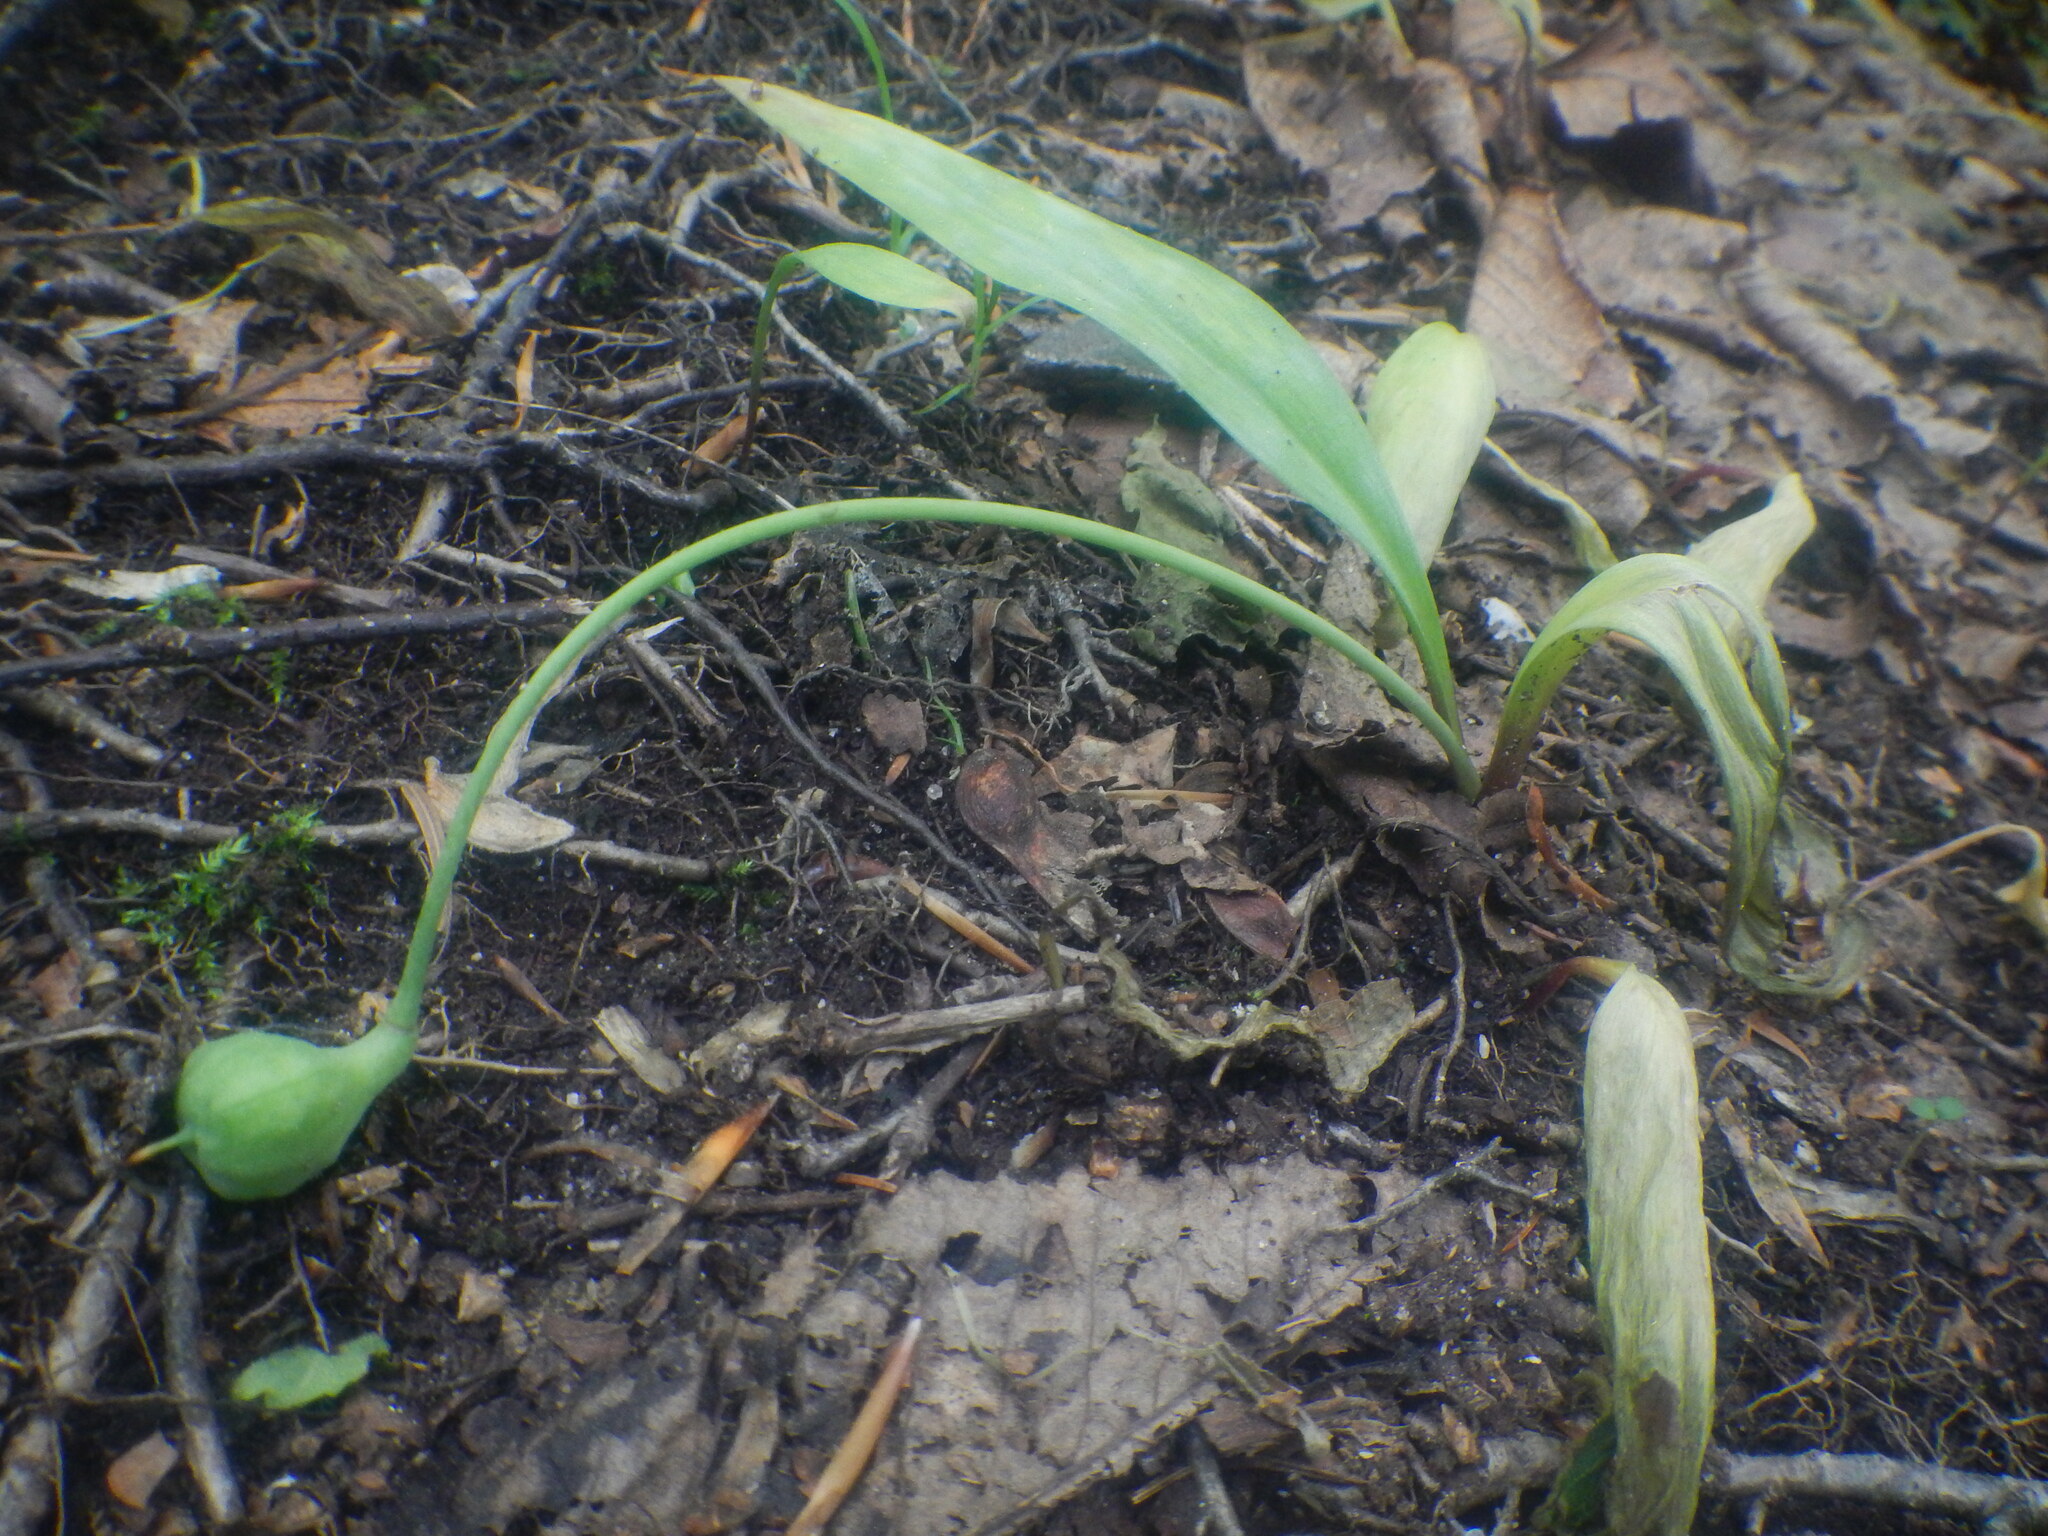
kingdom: Plantae
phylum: Tracheophyta
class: Liliopsida
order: Liliales
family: Liliaceae
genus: Erythronium
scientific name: Erythronium americanum
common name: Yellow adder's-tongue
